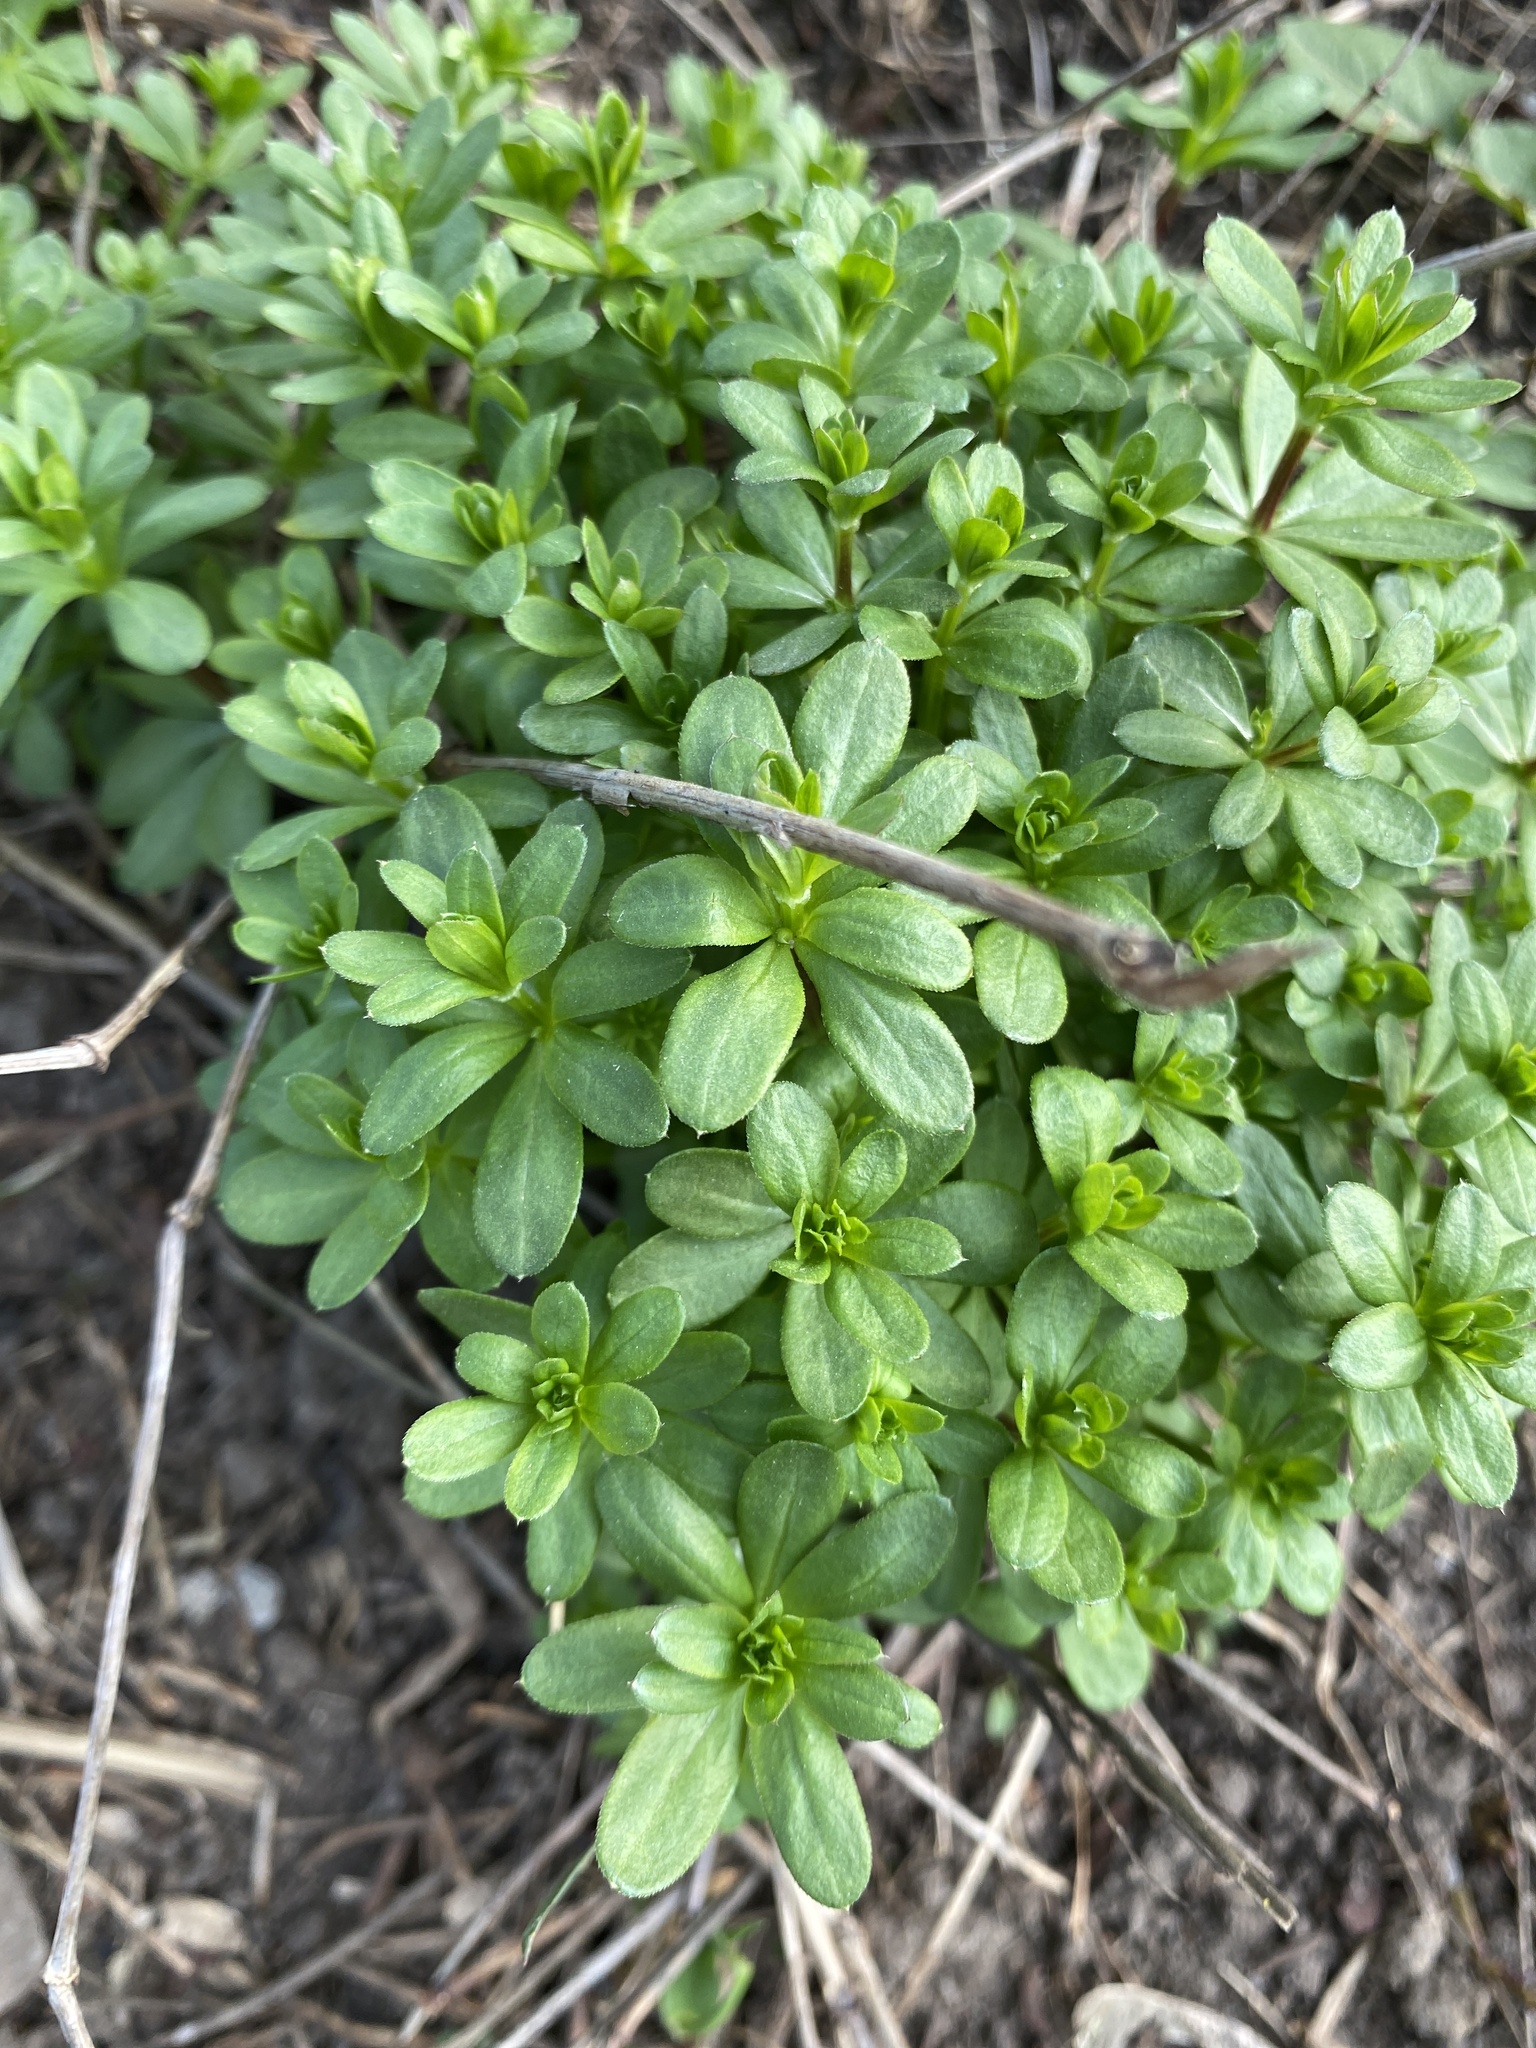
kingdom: Plantae
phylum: Tracheophyta
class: Magnoliopsida
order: Gentianales
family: Rubiaceae
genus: Galium
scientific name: Galium mollugo
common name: Hedge bedstraw
